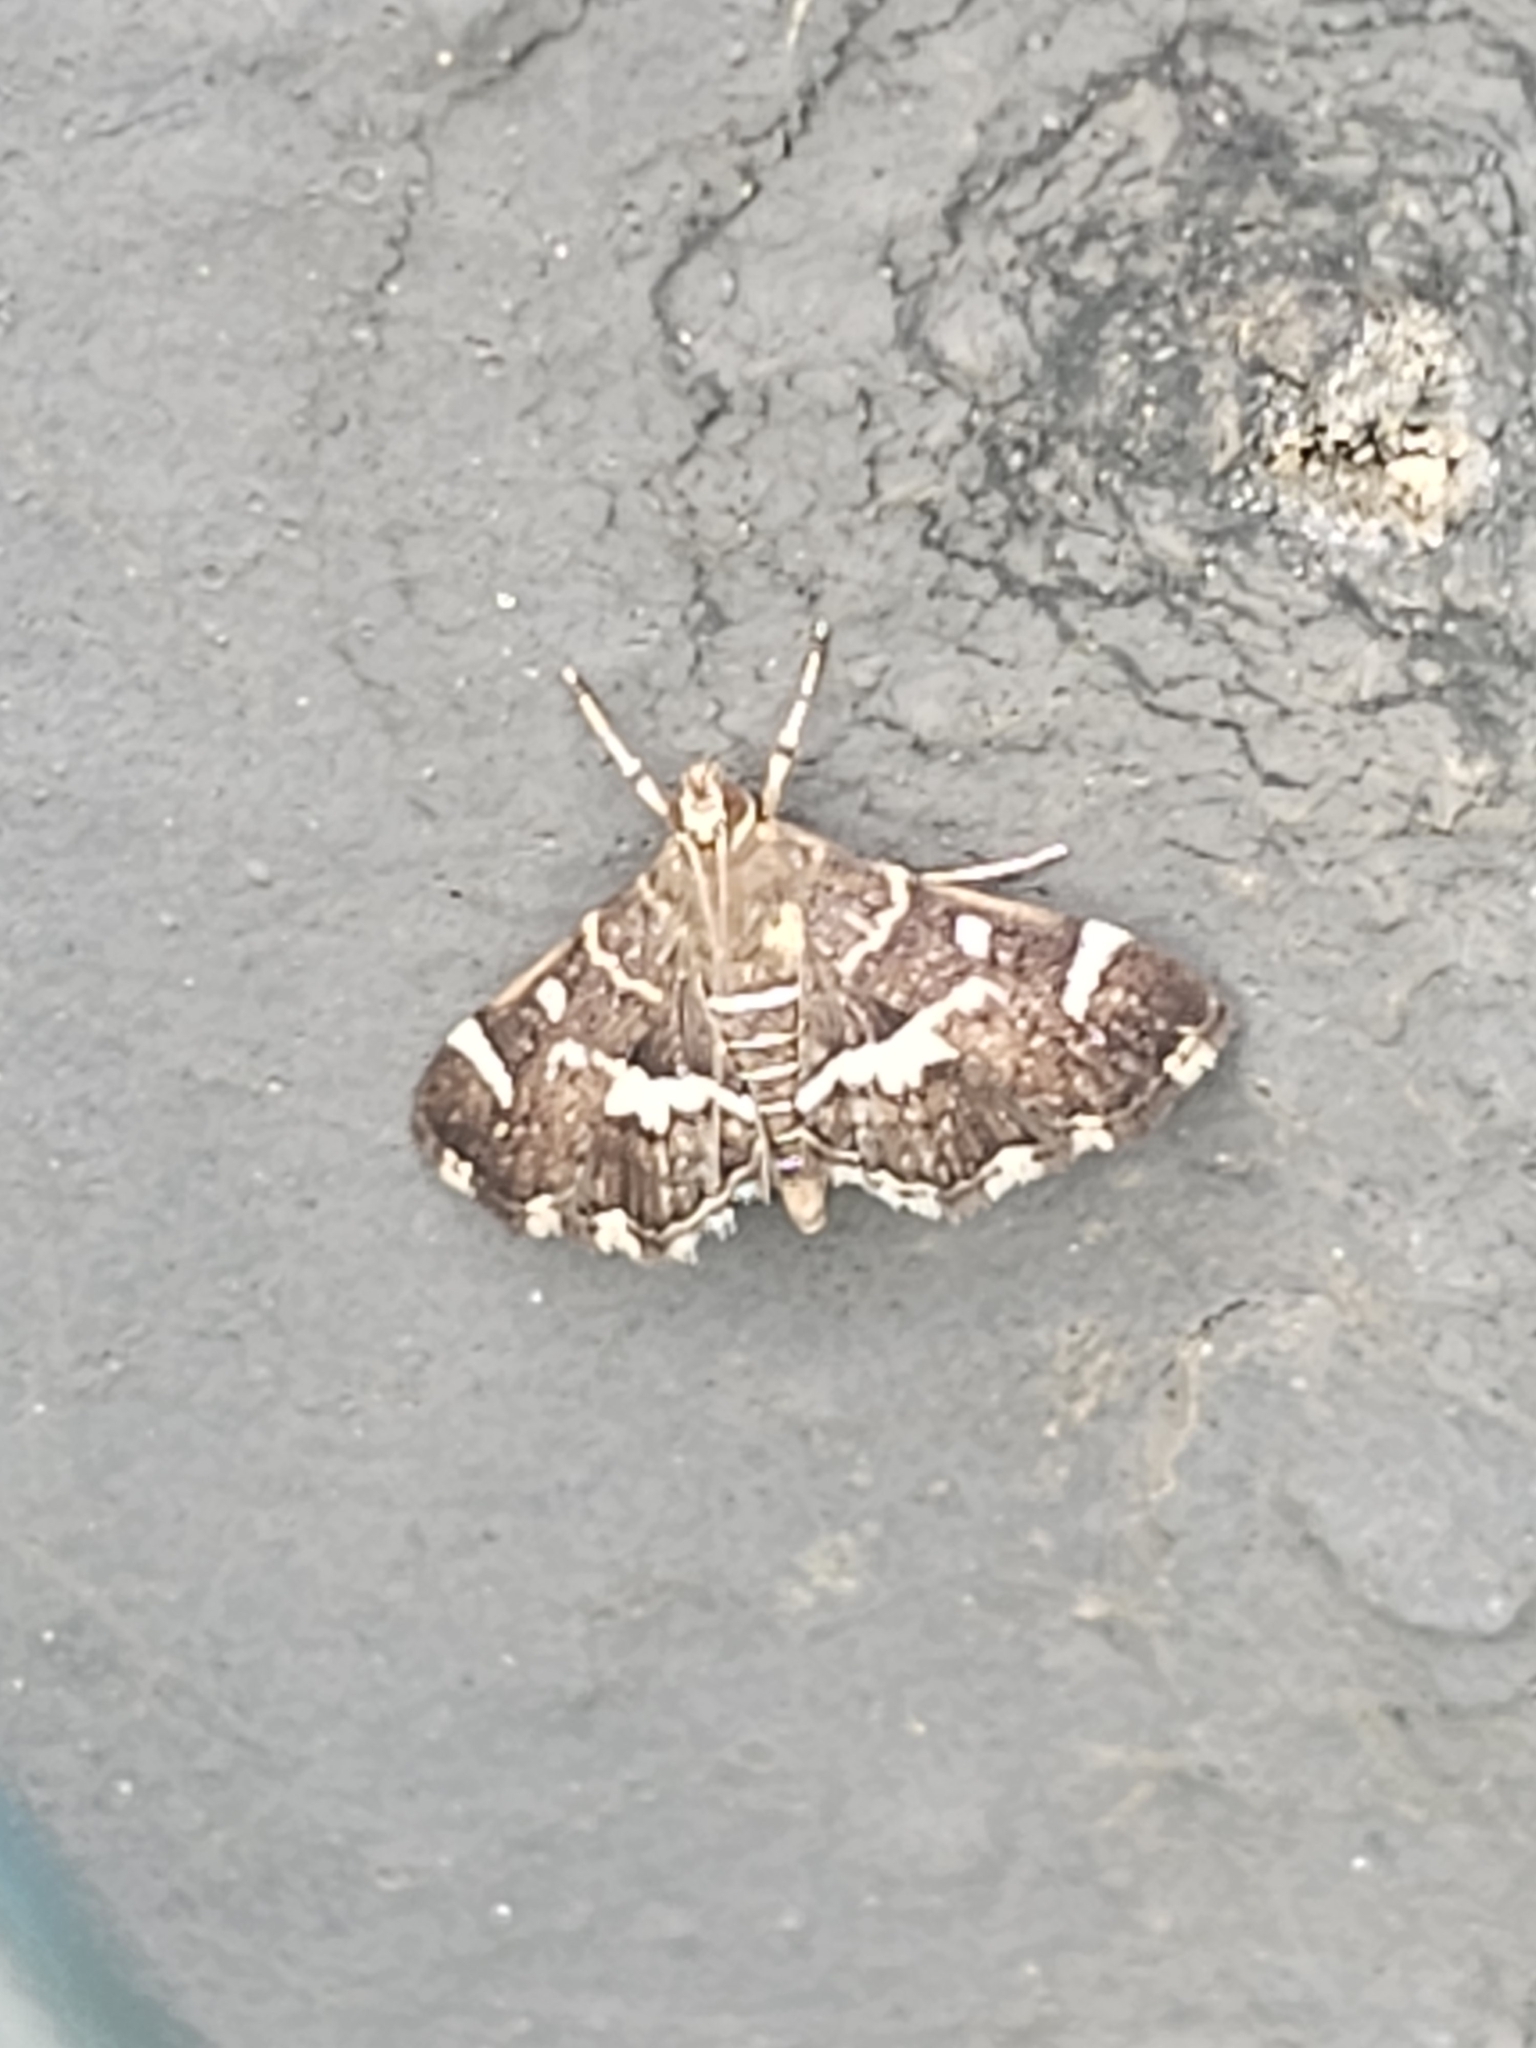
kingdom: Animalia
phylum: Arthropoda
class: Insecta
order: Lepidoptera
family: Crambidae
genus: Hymenia
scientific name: Hymenia perspectalis
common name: Spotted beet webworm
